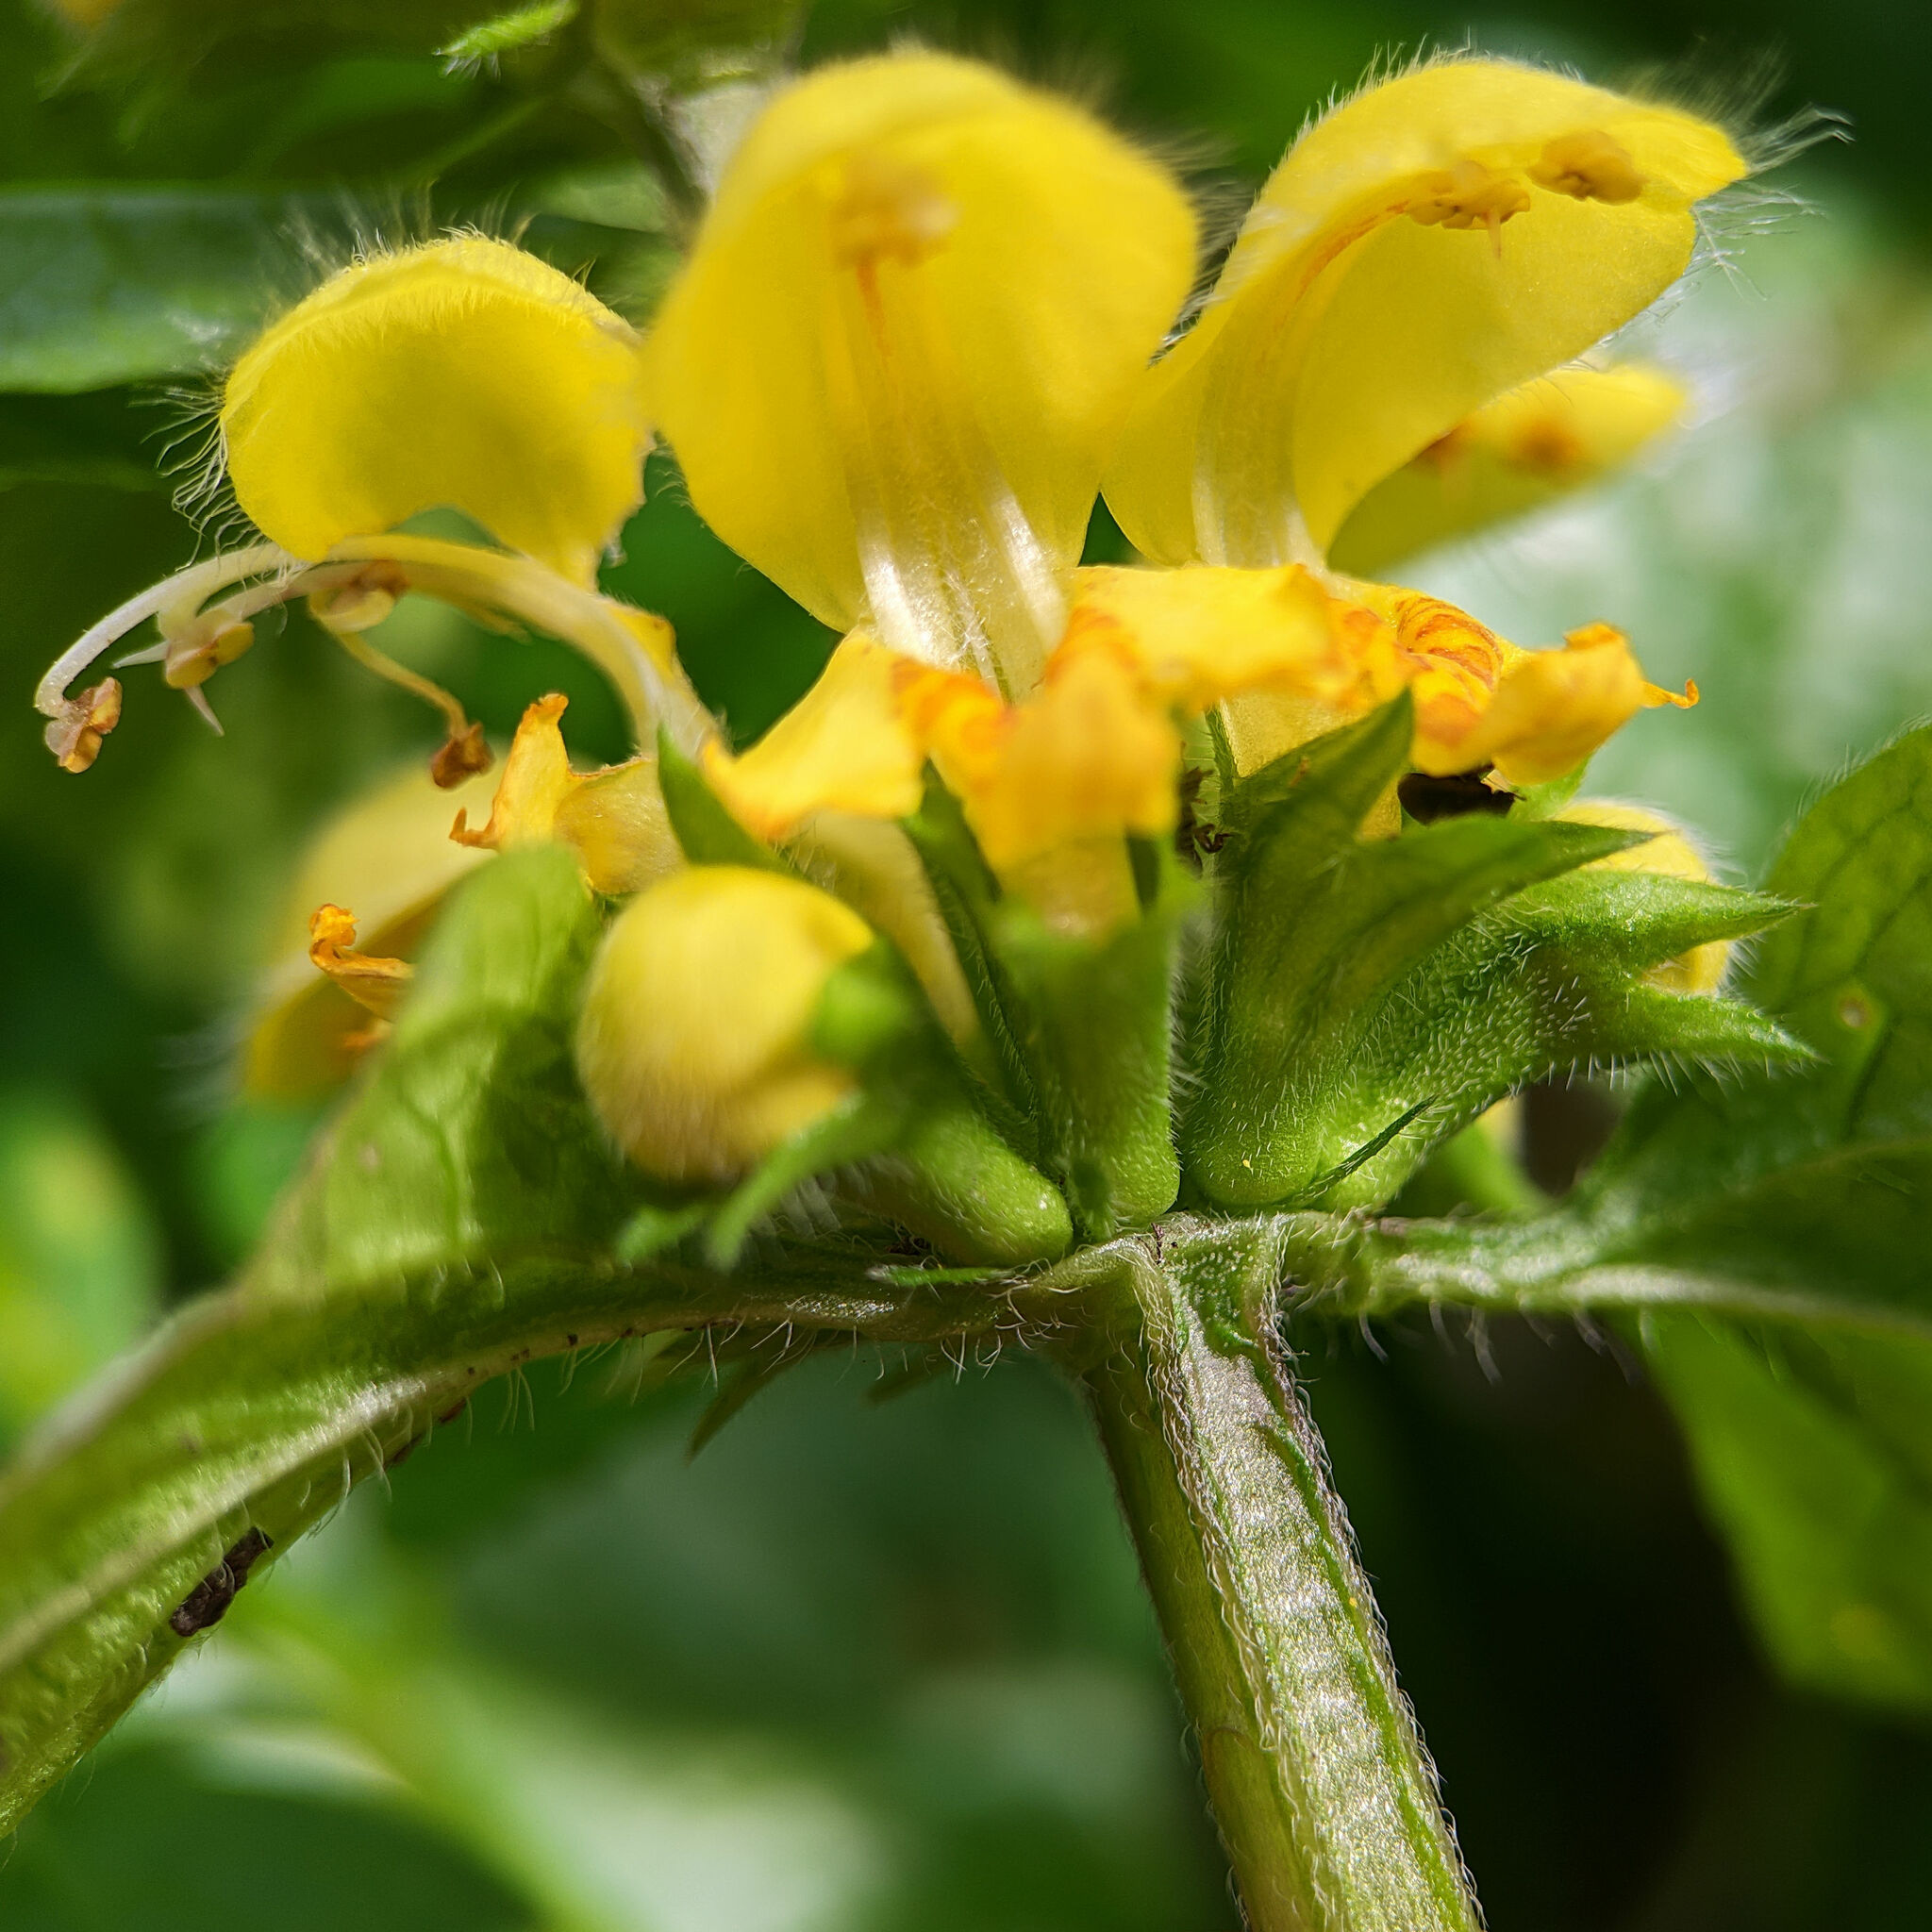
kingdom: Plantae
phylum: Tracheophyta
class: Magnoliopsida
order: Lamiales
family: Lamiaceae
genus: Lamium
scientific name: Lamium galeobdolon
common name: Yellow archangel
